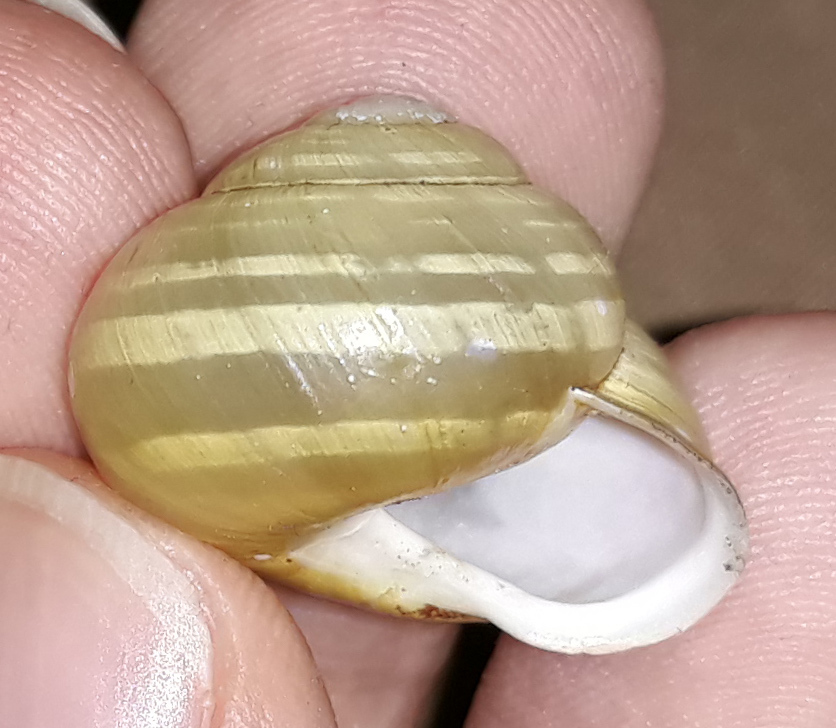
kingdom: Animalia
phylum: Mollusca
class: Gastropoda
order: Stylommatophora
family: Helicidae
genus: Cepaea
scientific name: Cepaea hortensis
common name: White-lip gardensnail
